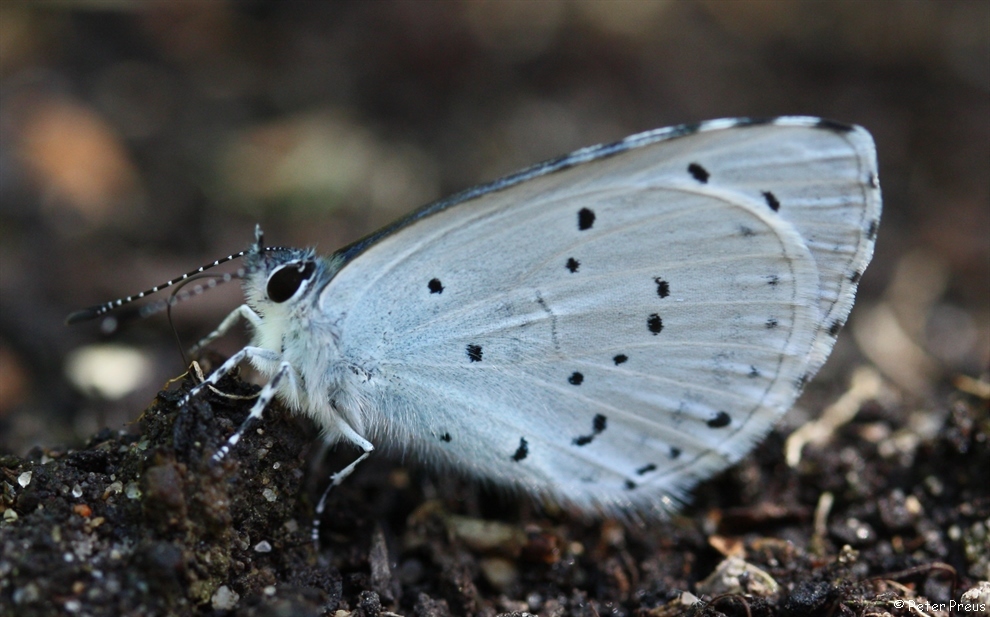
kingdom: Animalia
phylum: Arthropoda
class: Insecta
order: Lepidoptera
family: Lycaenidae
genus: Celastrina
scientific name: Celastrina argiolus
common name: Holly blue
